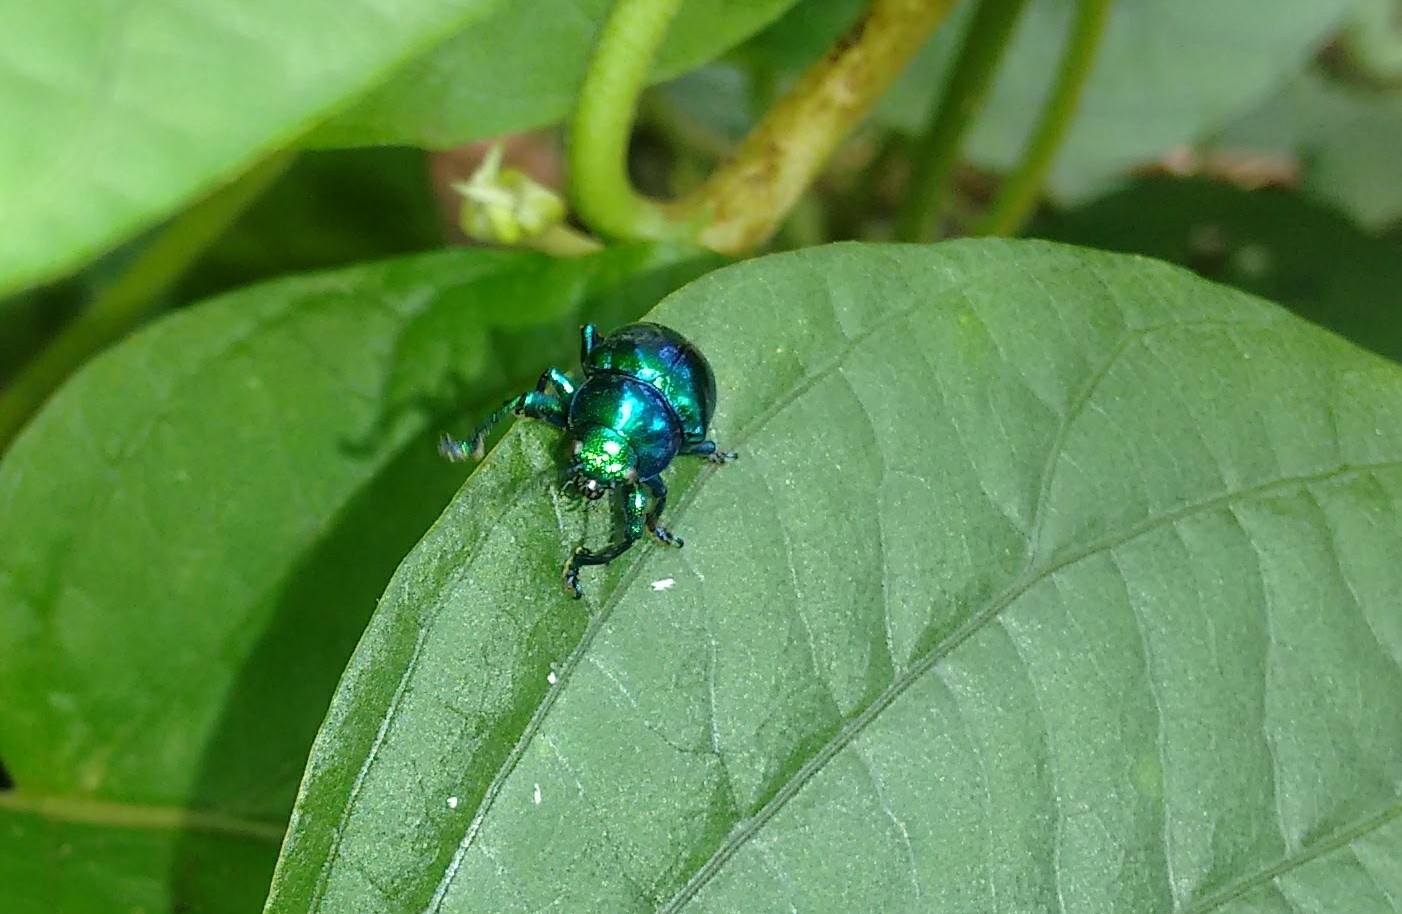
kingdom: Animalia
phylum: Arthropoda
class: Insecta
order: Coleoptera
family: Chrysomelidae
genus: Colasposoma
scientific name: Colasposoma
